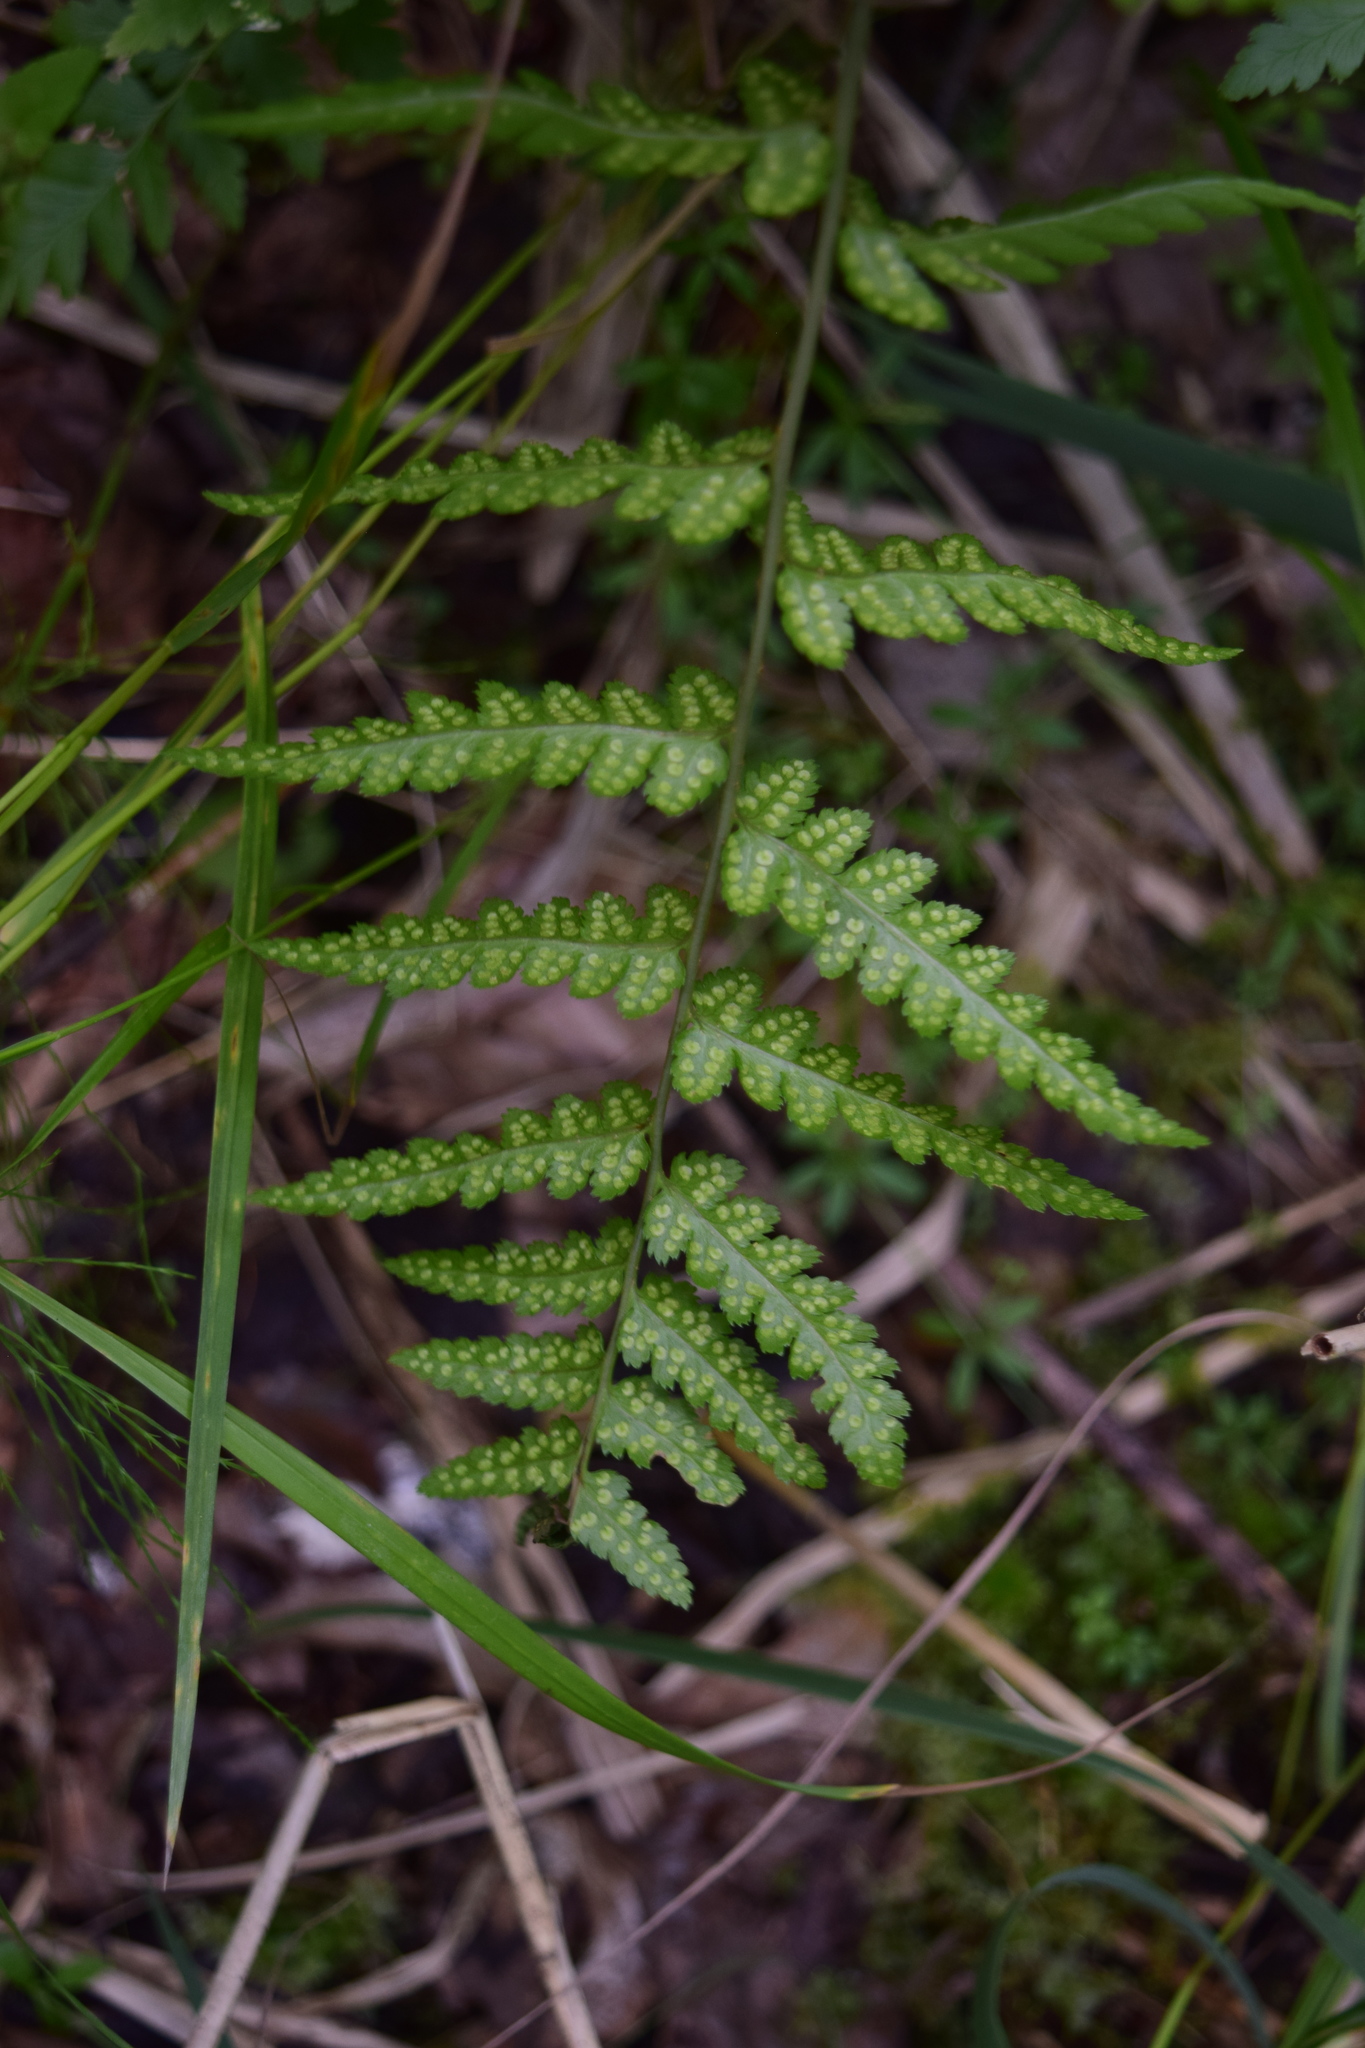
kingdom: Plantae
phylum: Tracheophyta
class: Polypodiopsida
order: Polypodiales
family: Dryopteridaceae
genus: Dryopteris
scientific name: Dryopteris cristata
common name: Crested wood fern
